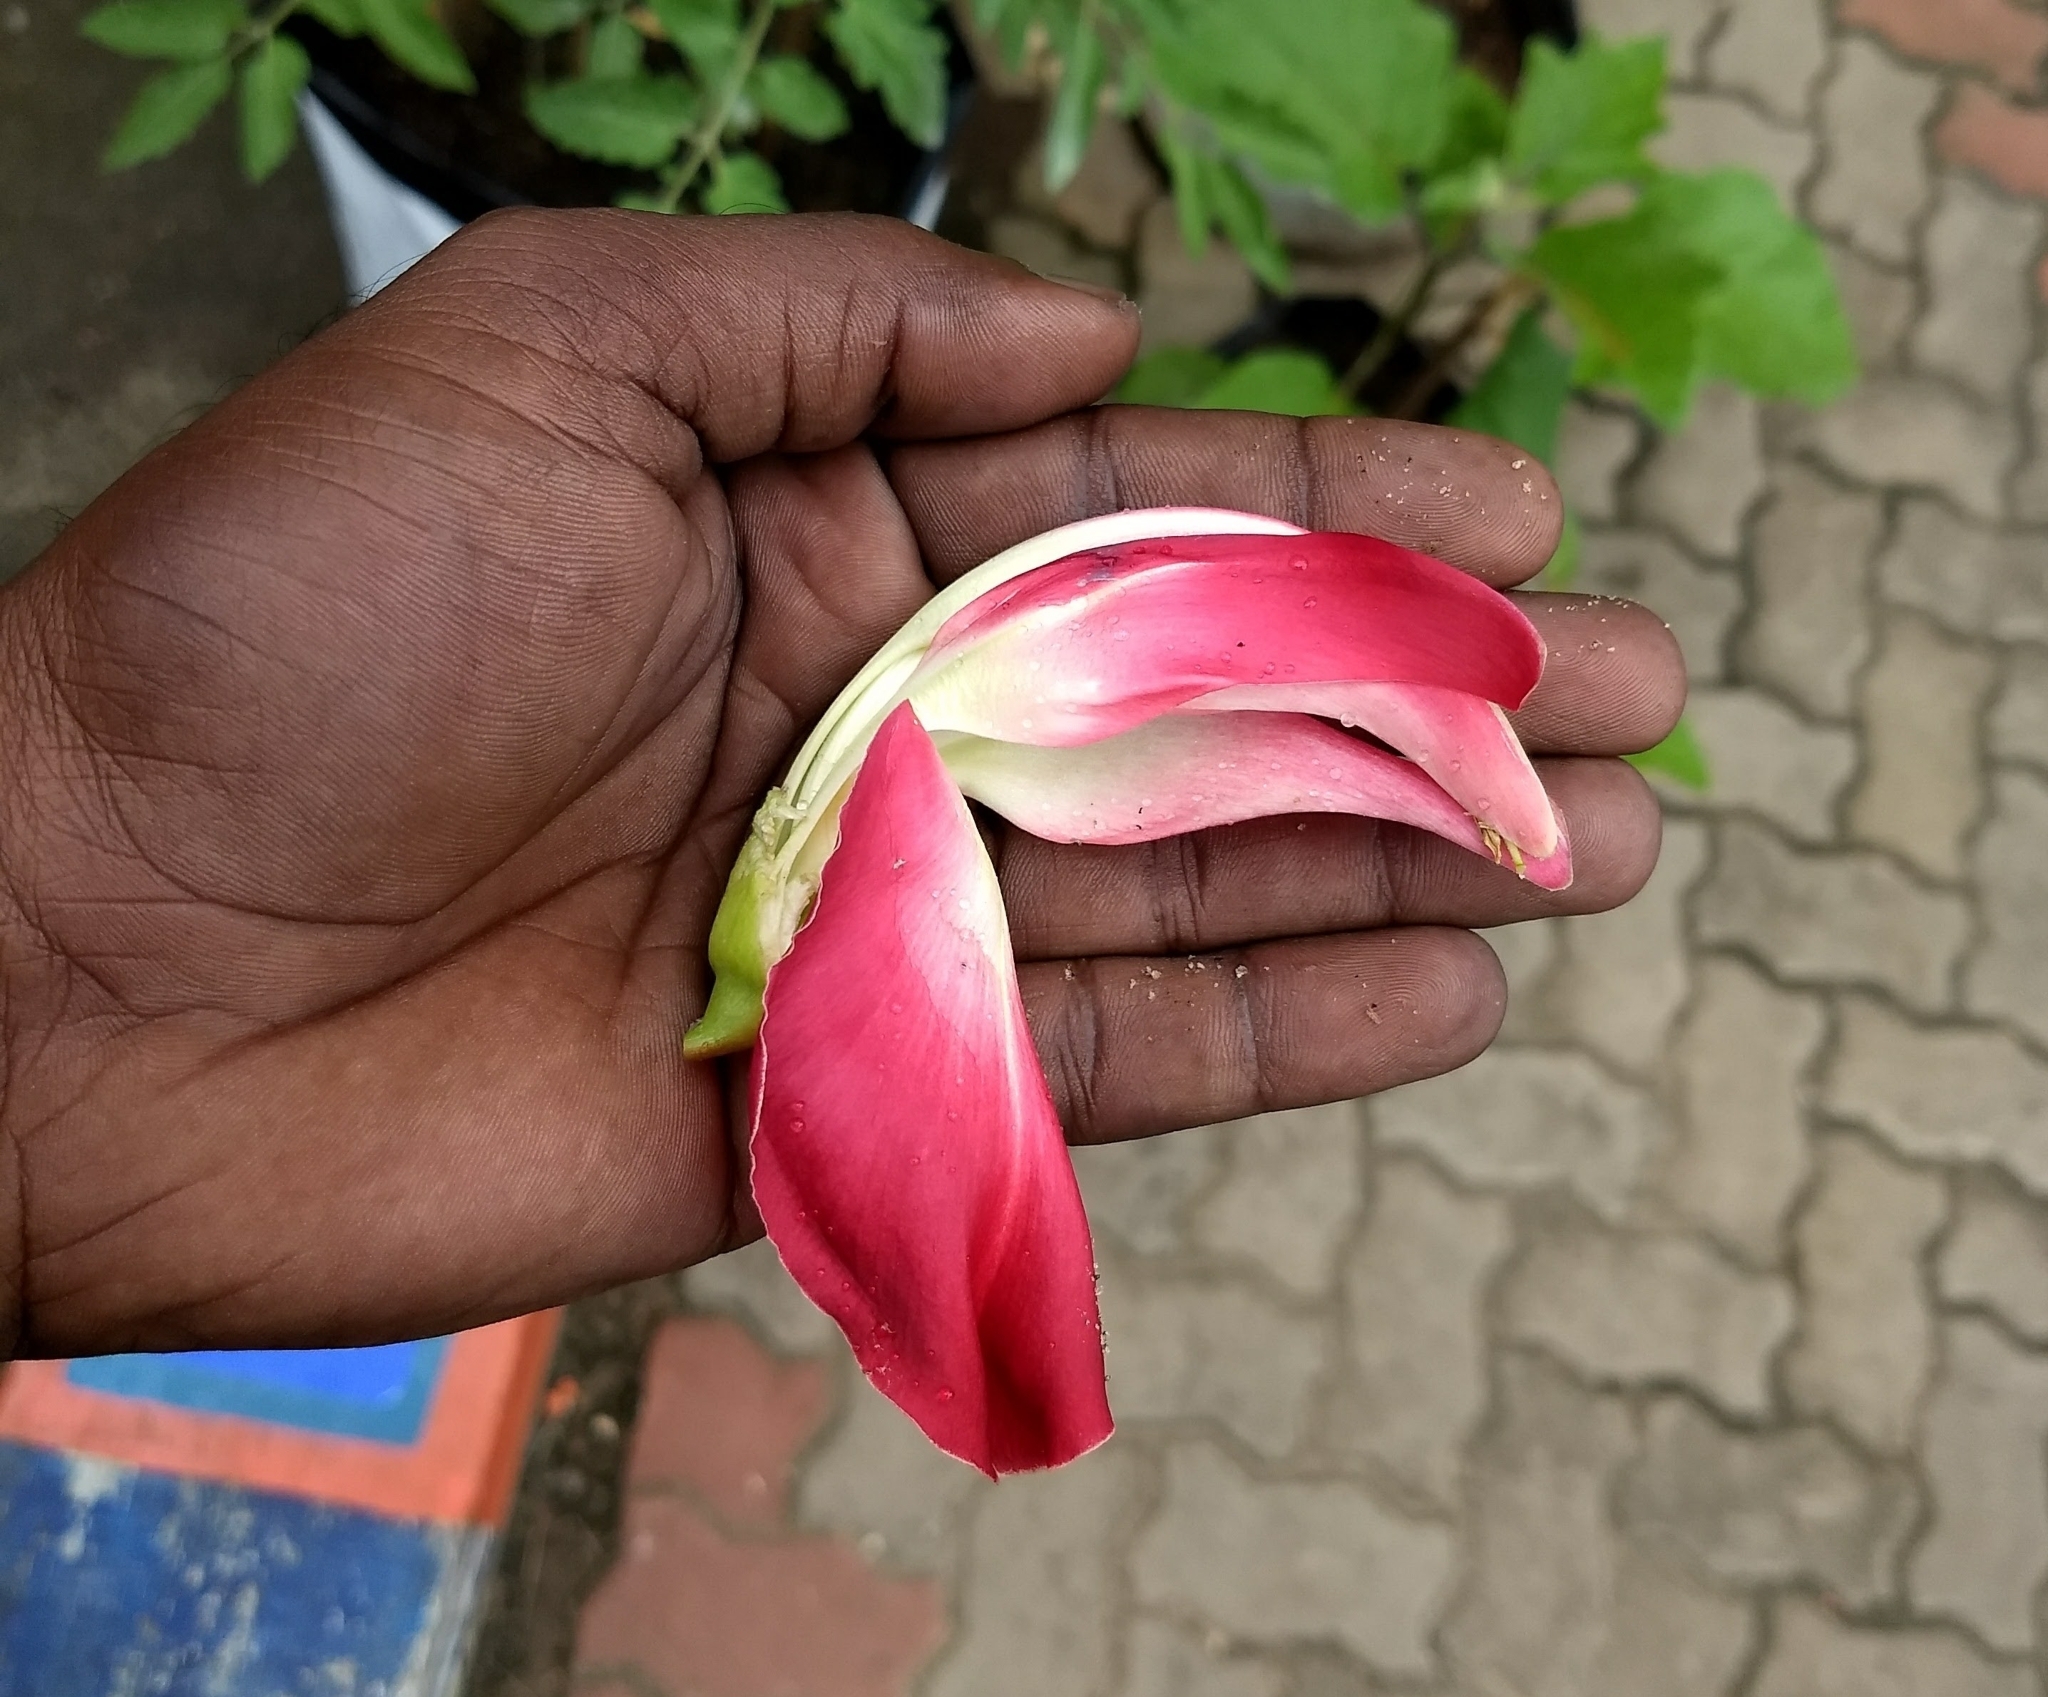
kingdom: Plantae
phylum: Tracheophyta
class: Magnoliopsida
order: Fabales
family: Fabaceae
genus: Sesbania
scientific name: Sesbania grandiflora
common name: Vegetable-hummingbird
